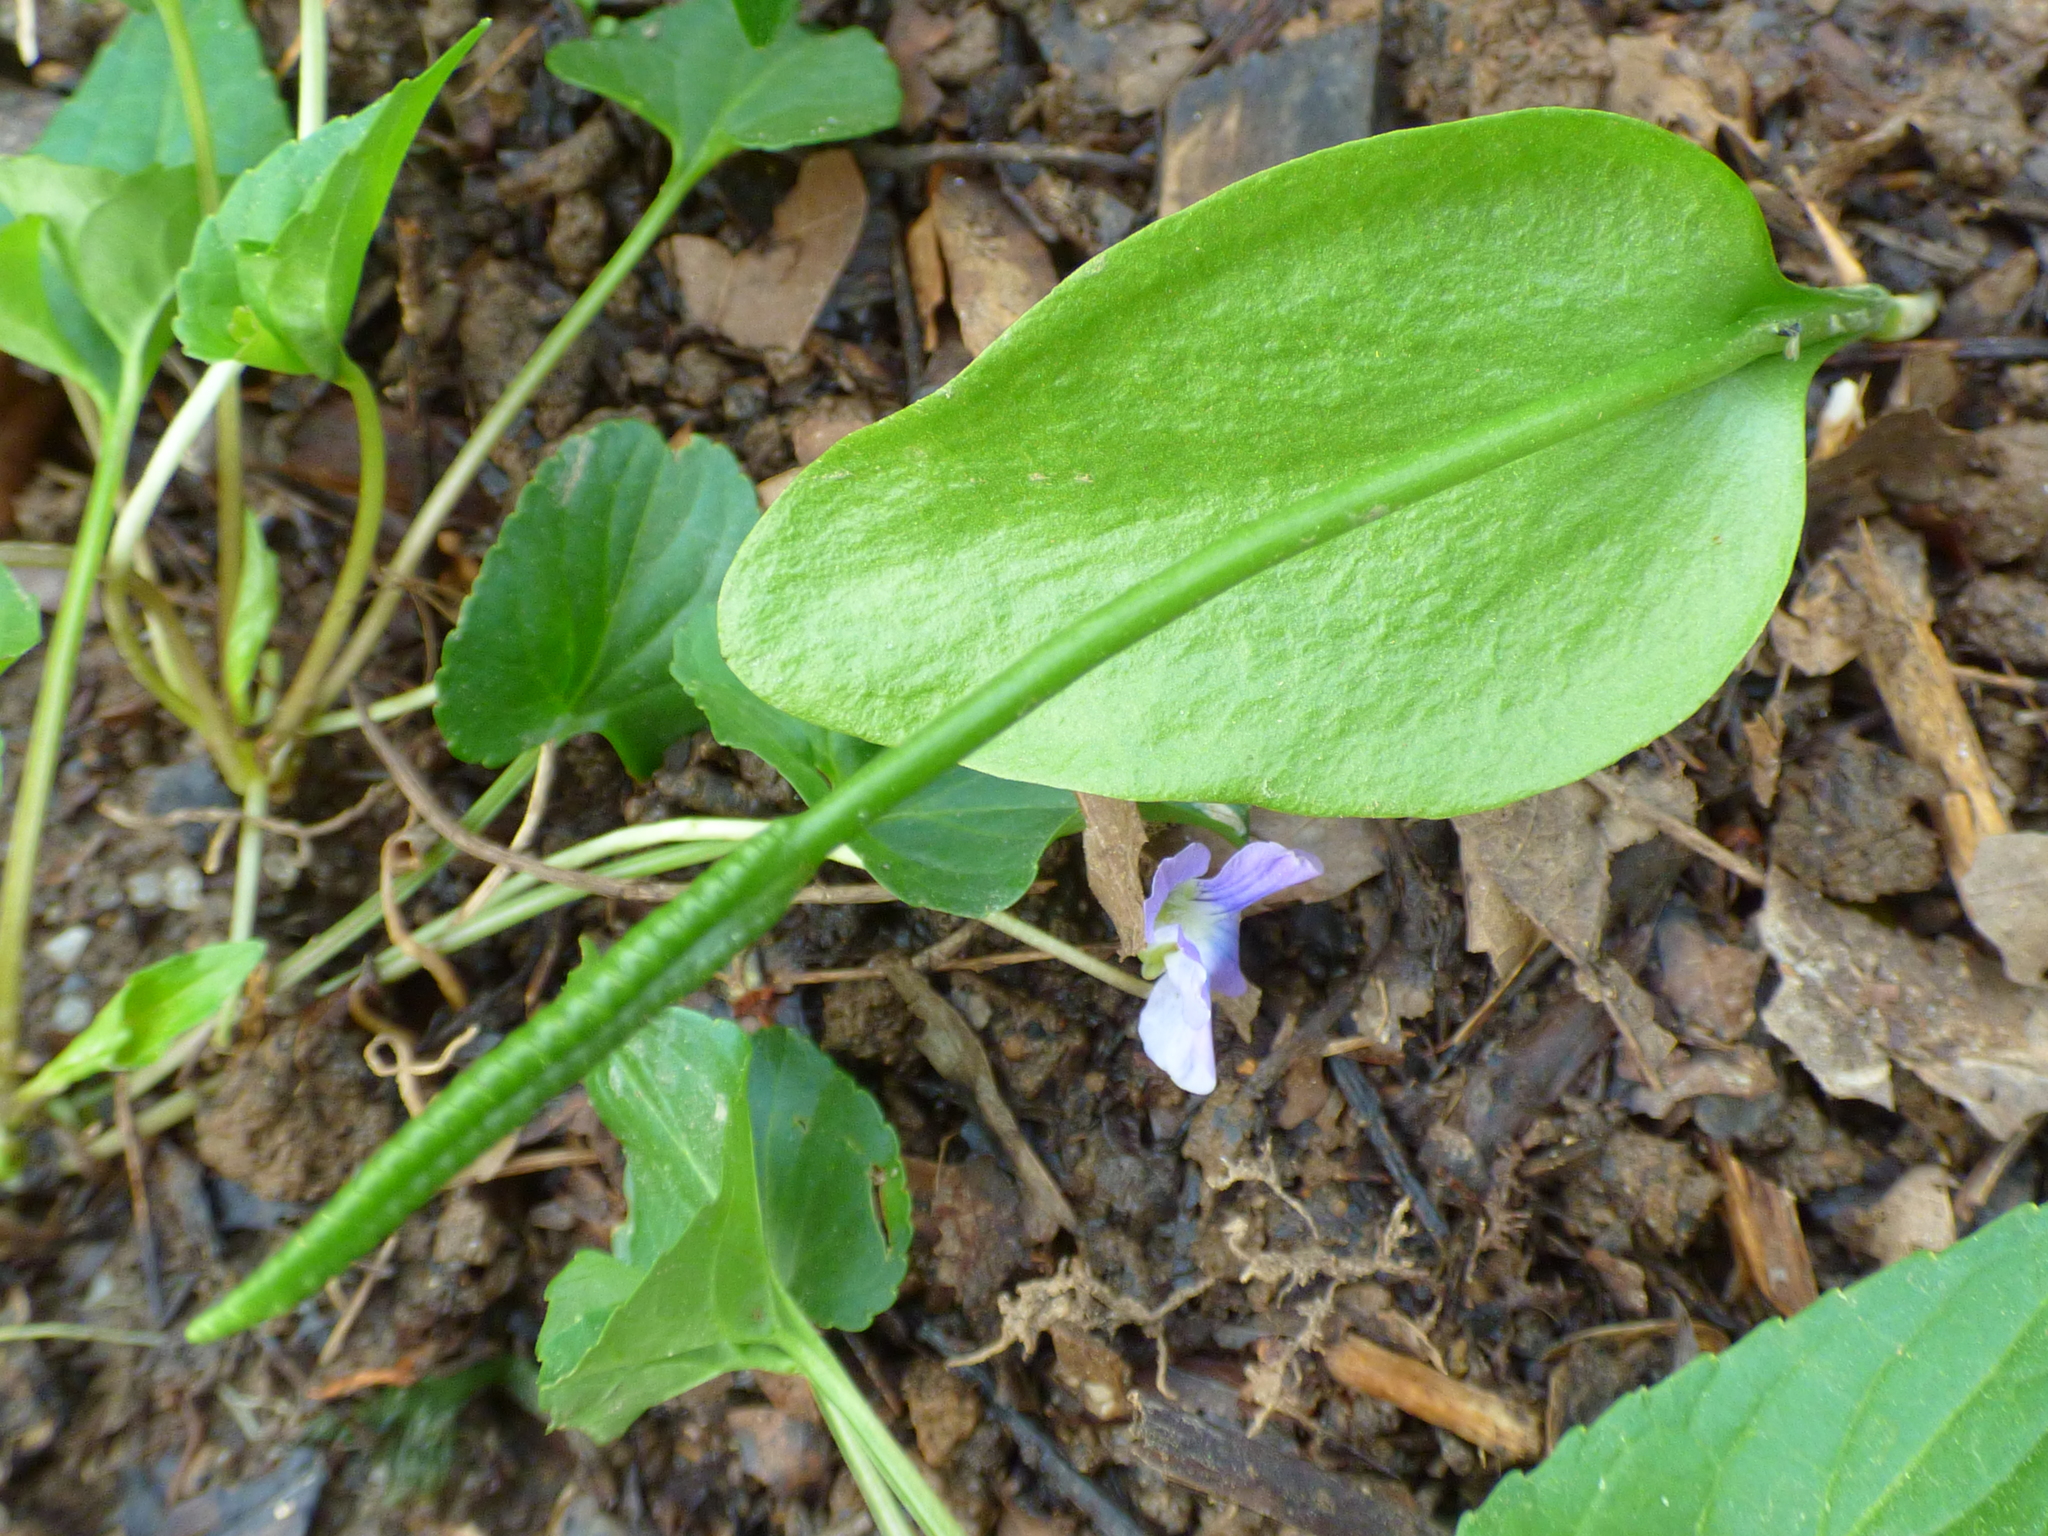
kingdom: Plantae
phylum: Tracheophyta
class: Polypodiopsida
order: Ophioglossales
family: Ophioglossaceae
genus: Ophioglossum
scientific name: Ophioglossum vulgatum
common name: Adder's-tongue
